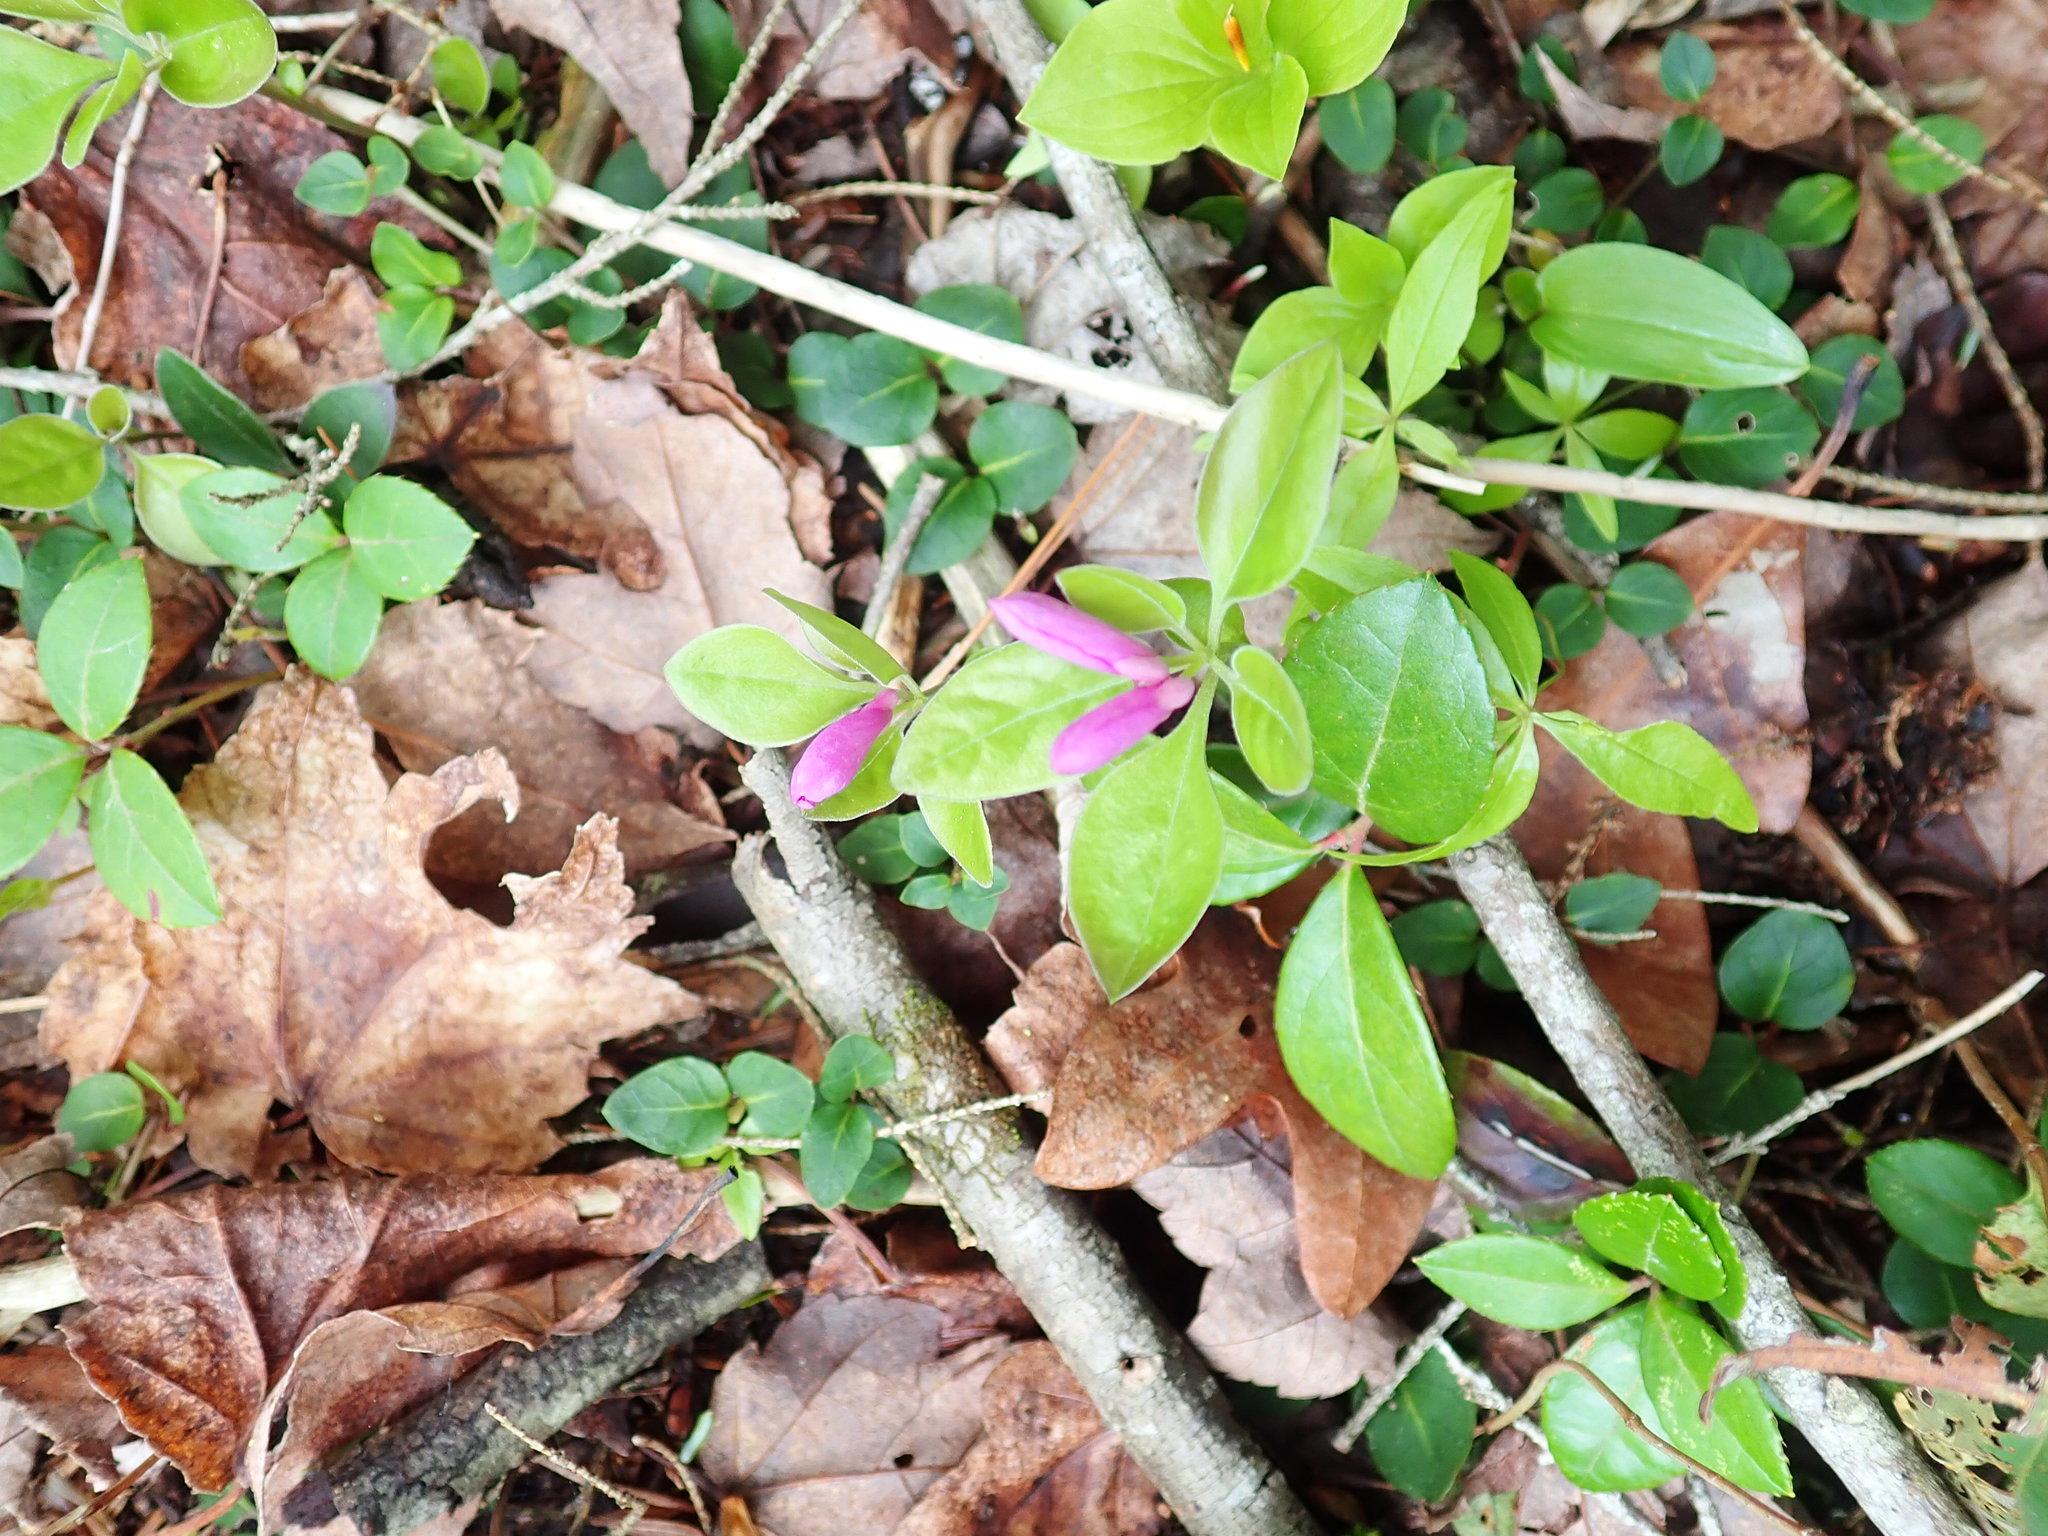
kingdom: Plantae
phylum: Tracheophyta
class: Magnoliopsida
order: Fabales
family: Polygalaceae
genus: Polygaloides
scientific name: Polygaloides paucifolia
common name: Bird-on-the-wing
